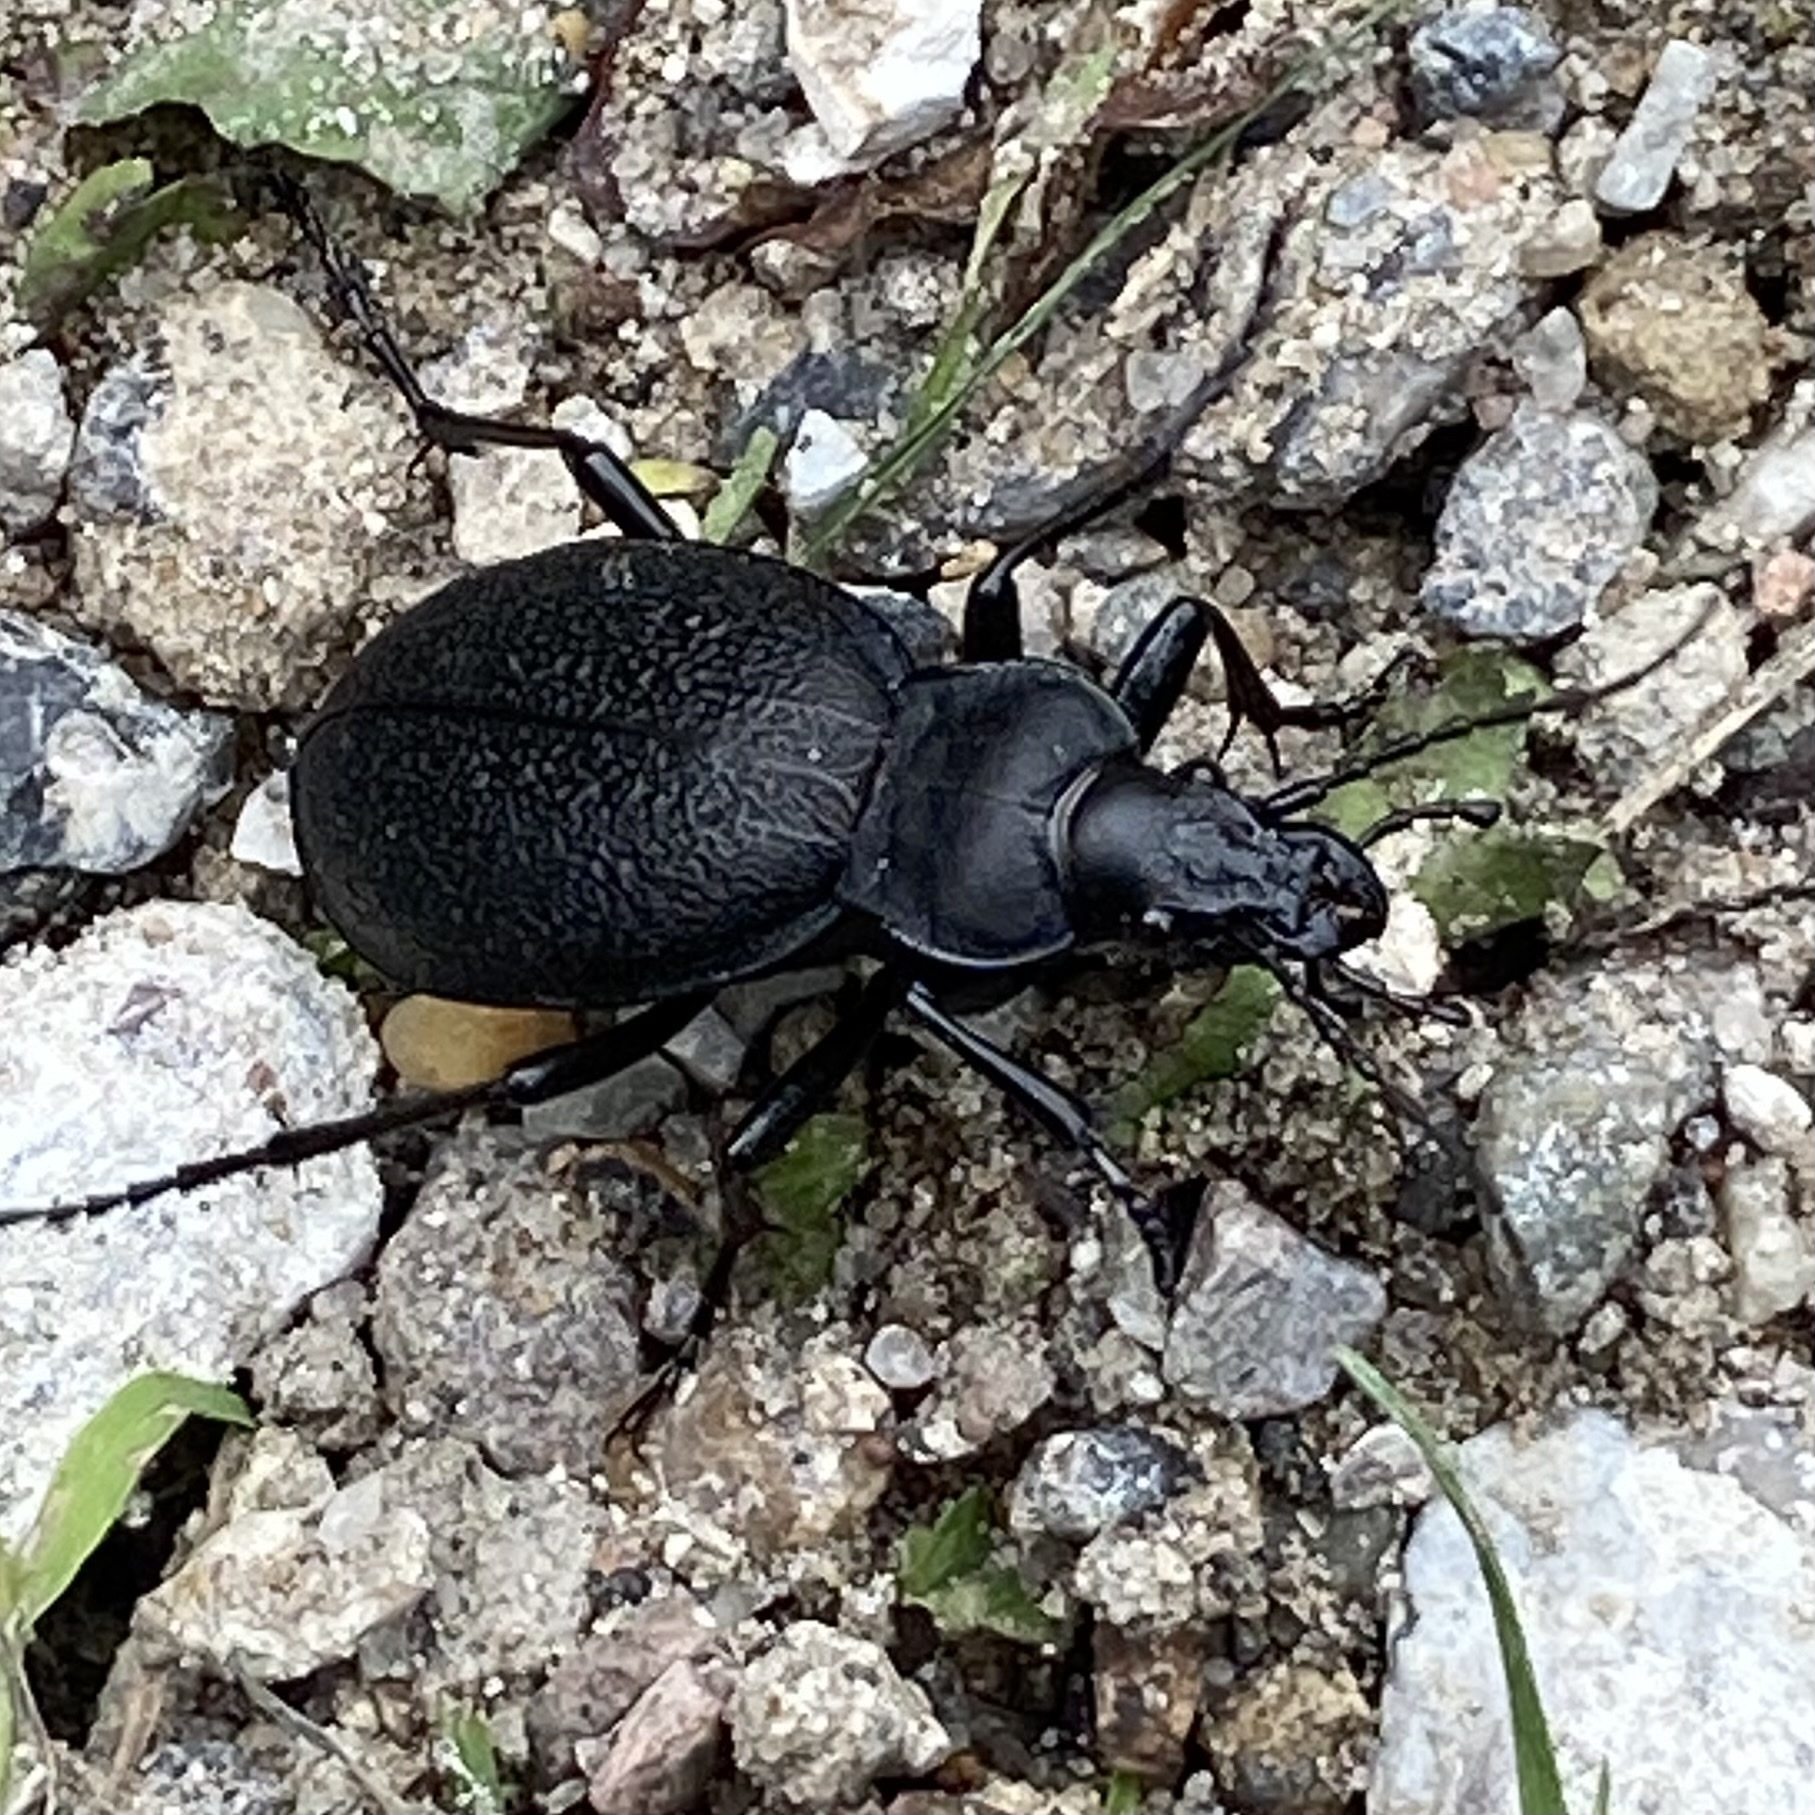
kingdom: Animalia
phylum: Arthropoda
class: Insecta
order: Coleoptera
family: Carabidae
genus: Carabus
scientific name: Carabus coriaceus
